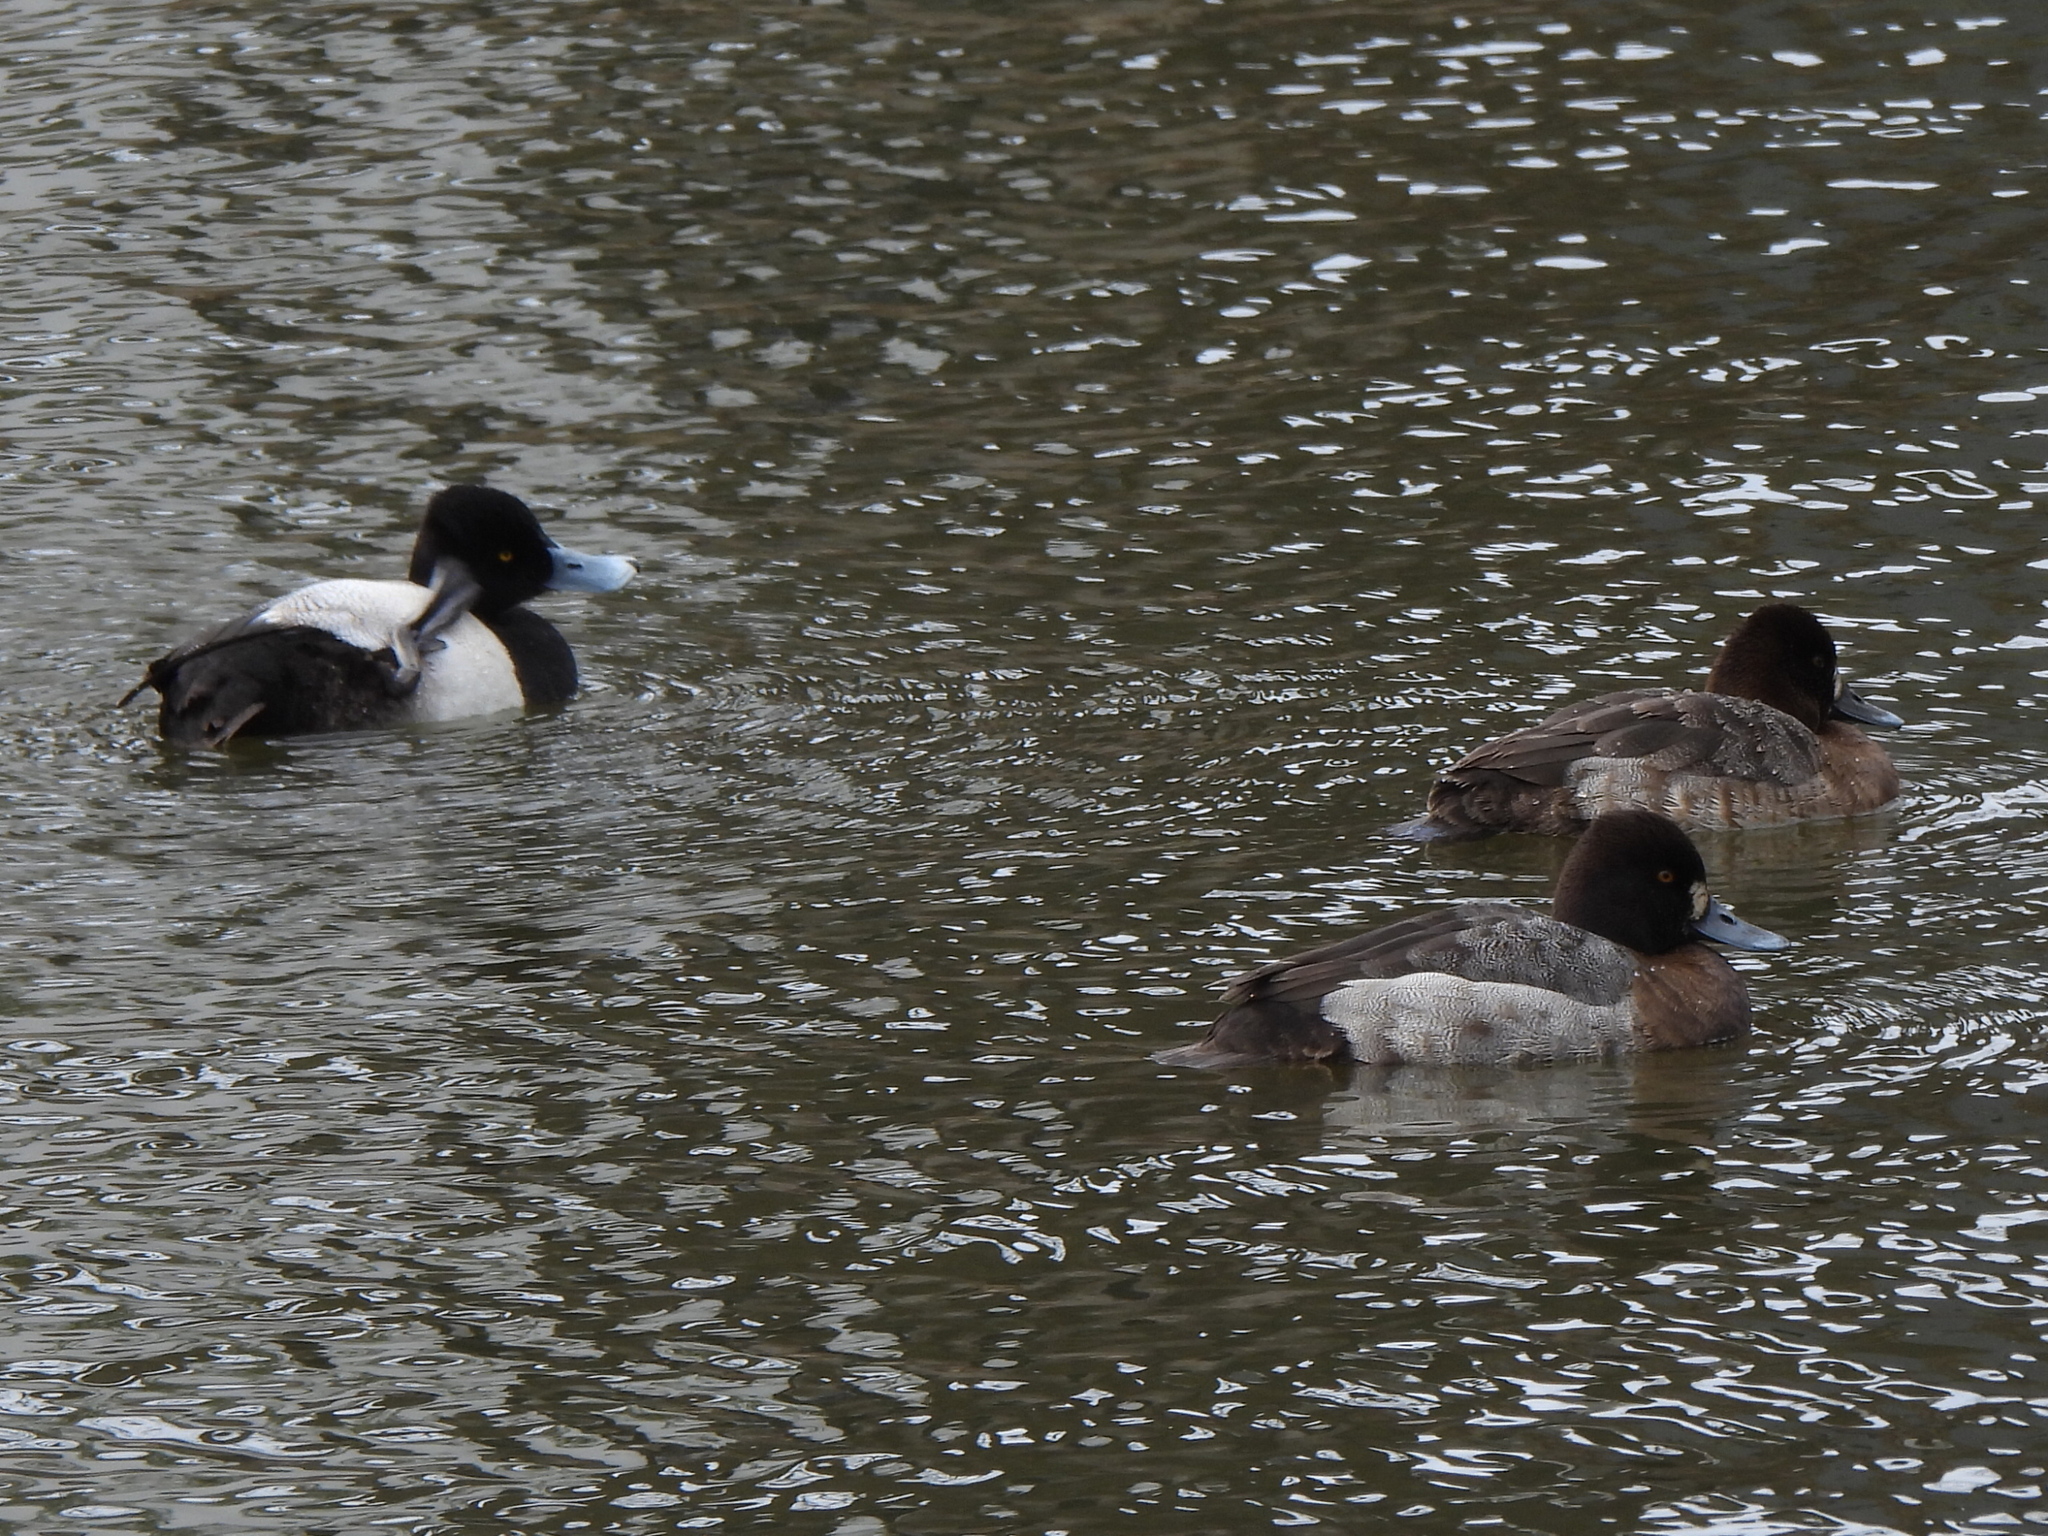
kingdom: Animalia
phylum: Chordata
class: Aves
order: Anseriformes
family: Anatidae
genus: Aythya
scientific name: Aythya affinis
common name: Lesser scaup
